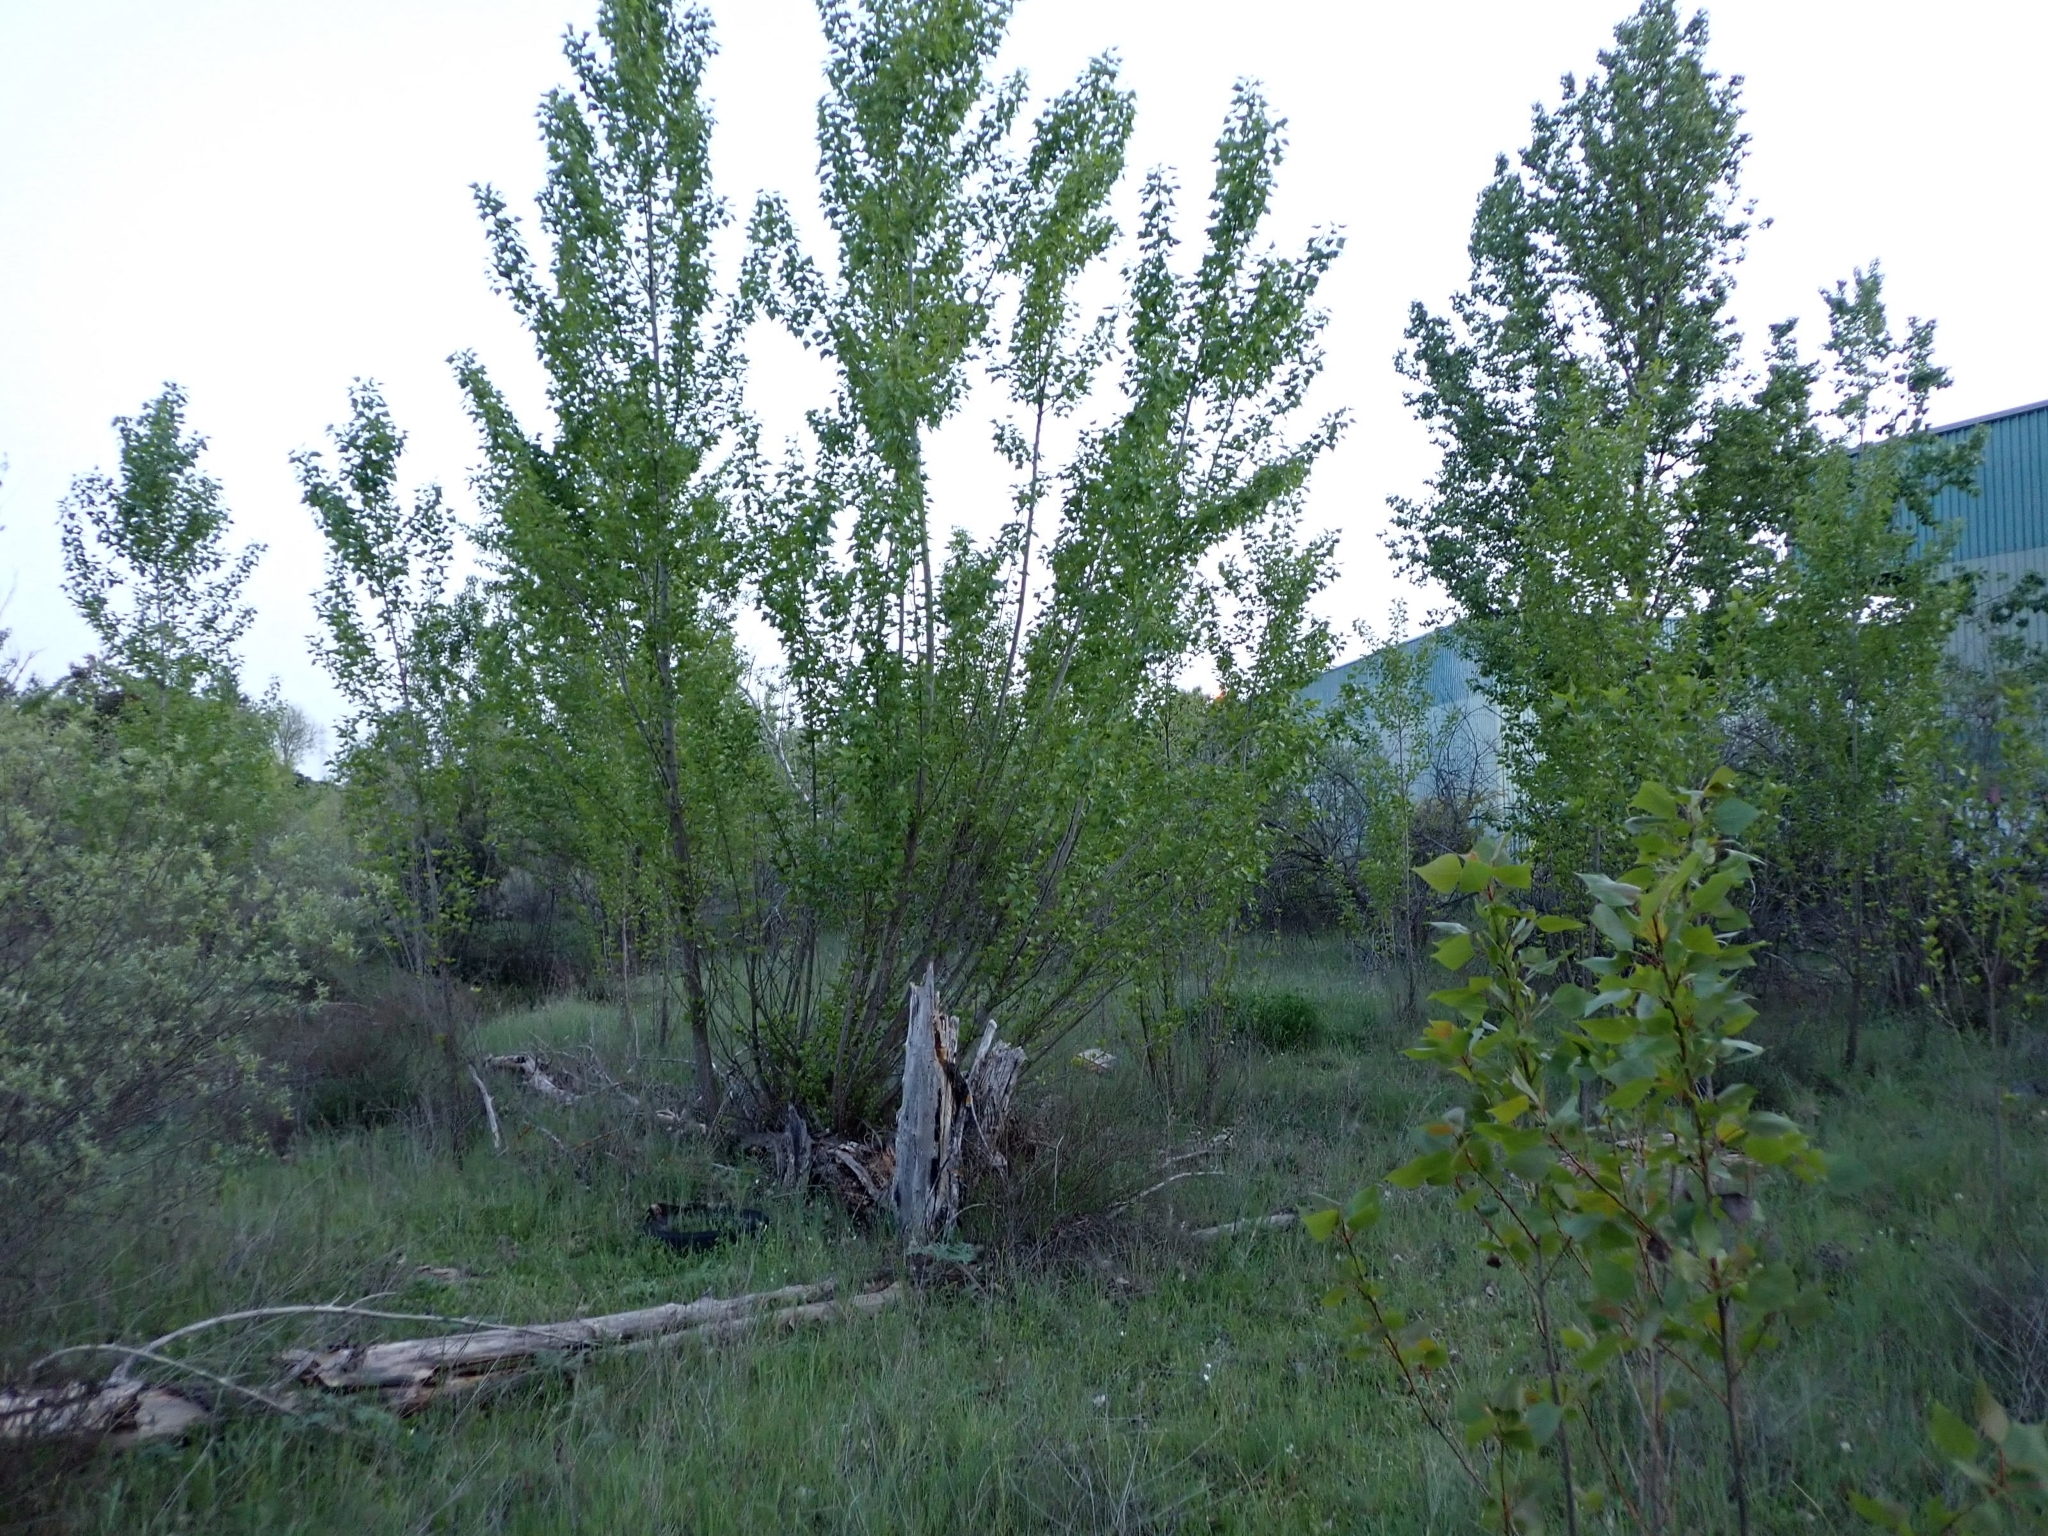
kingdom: Plantae
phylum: Tracheophyta
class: Magnoliopsida
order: Malpighiales
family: Salicaceae
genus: Populus
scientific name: Populus nigra
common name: Black poplar
